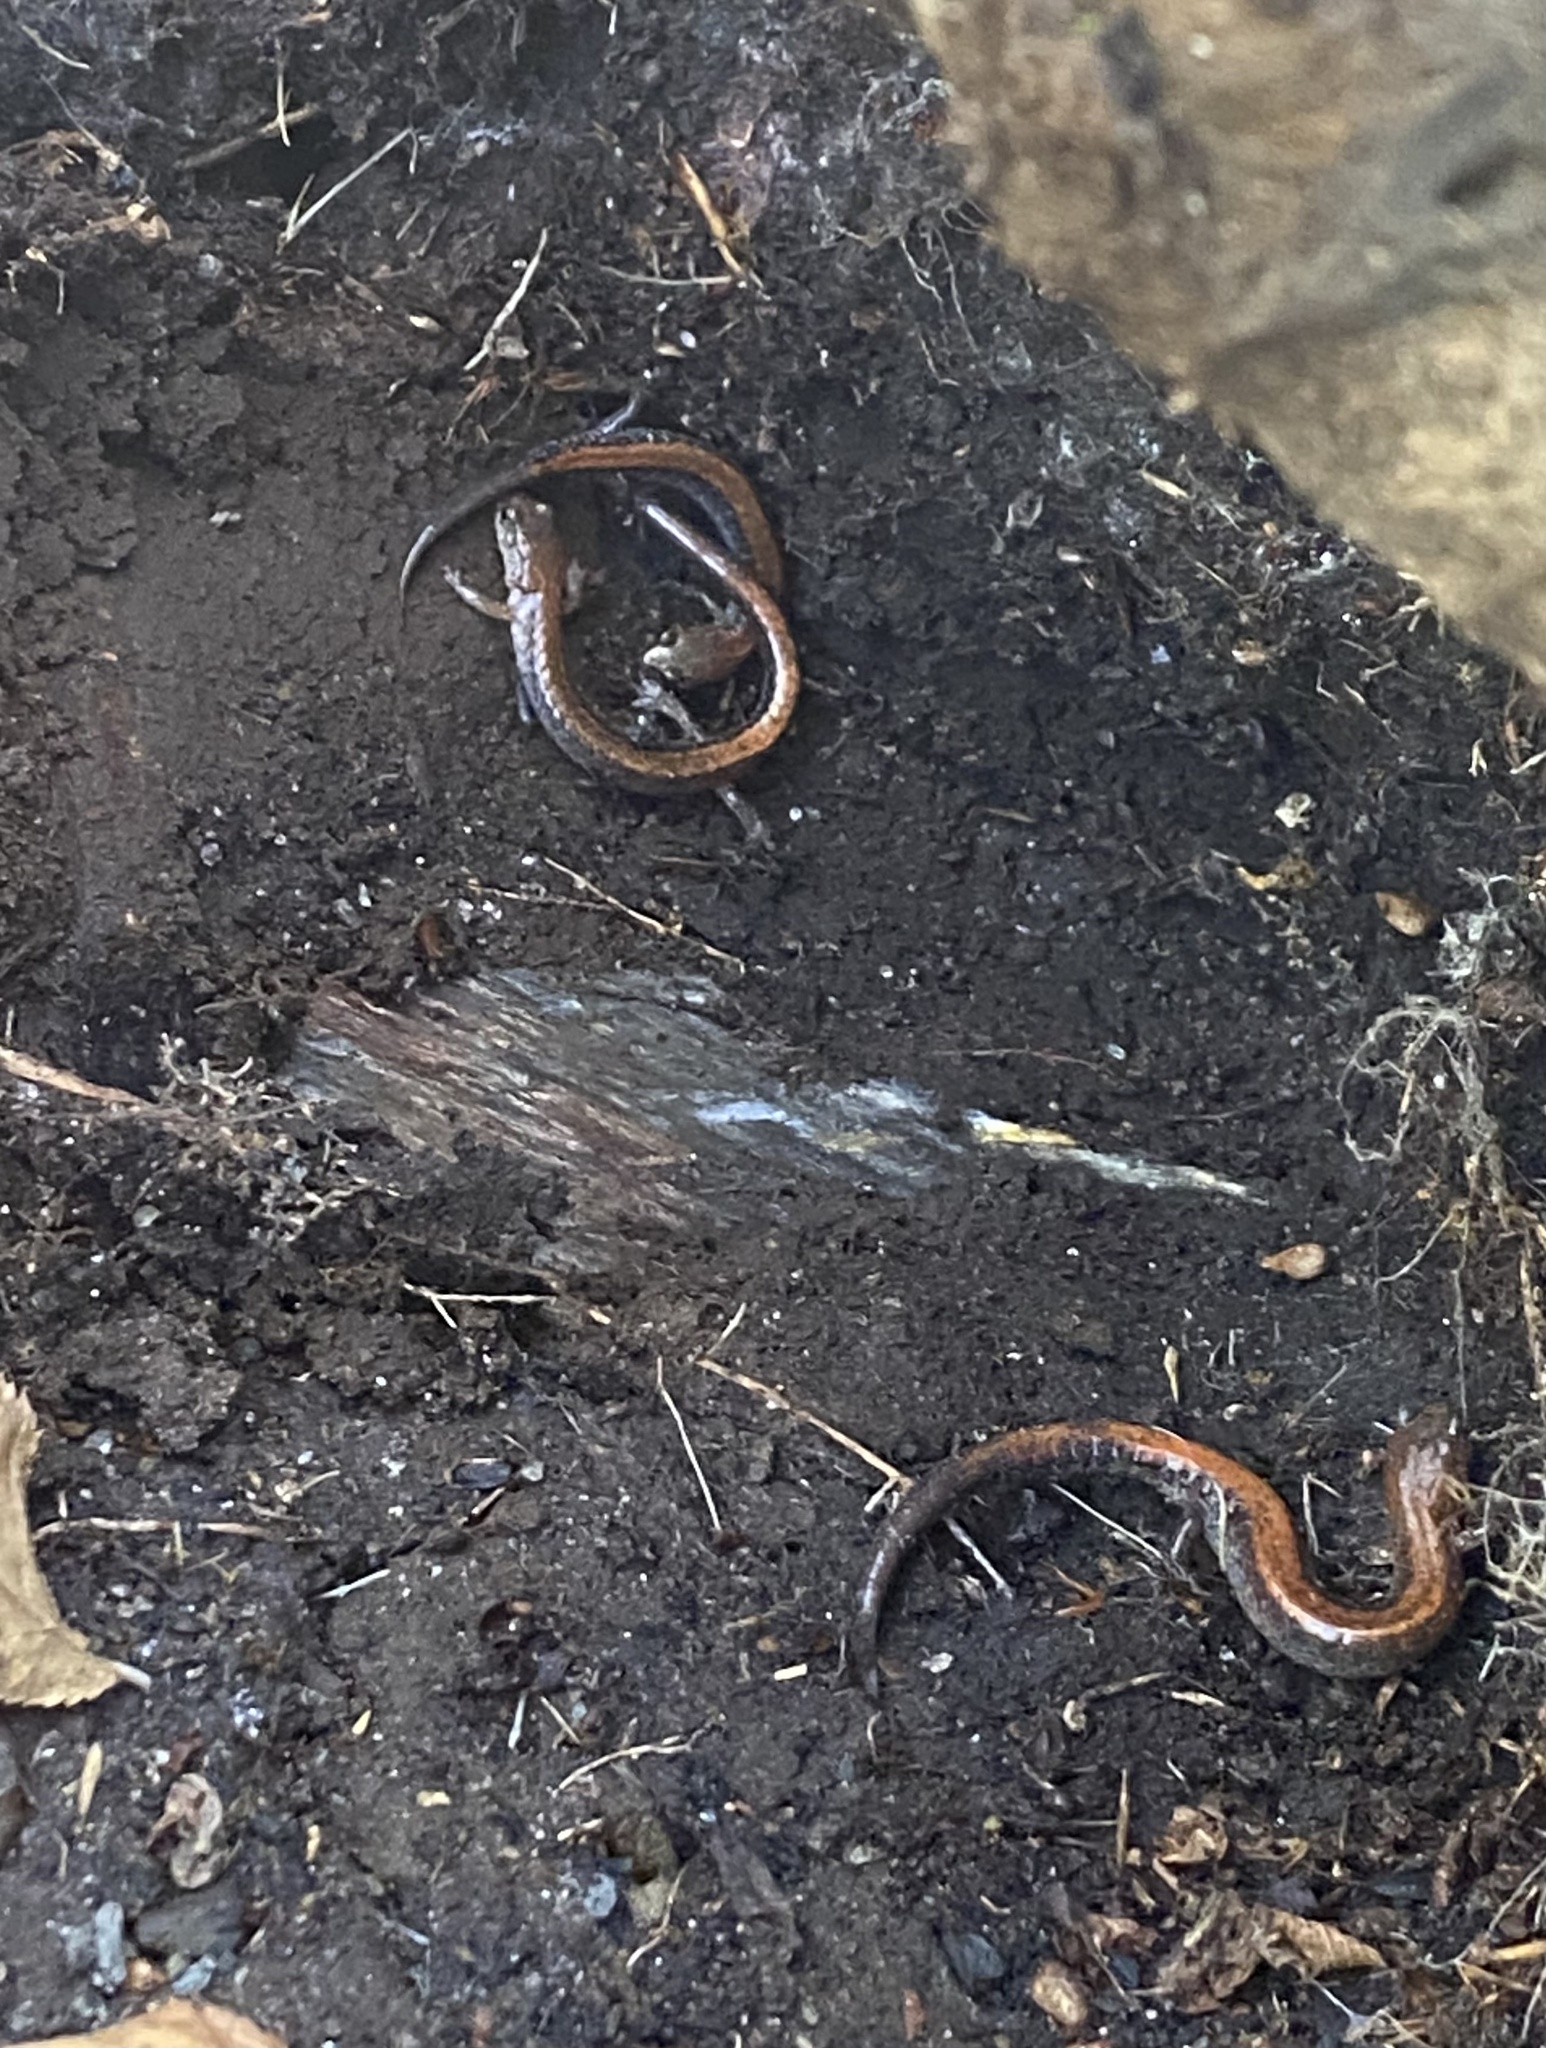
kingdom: Animalia
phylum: Chordata
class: Amphibia
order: Caudata
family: Plethodontidae
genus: Plethodon
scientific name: Plethodon cinereus
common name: Redback salamander
